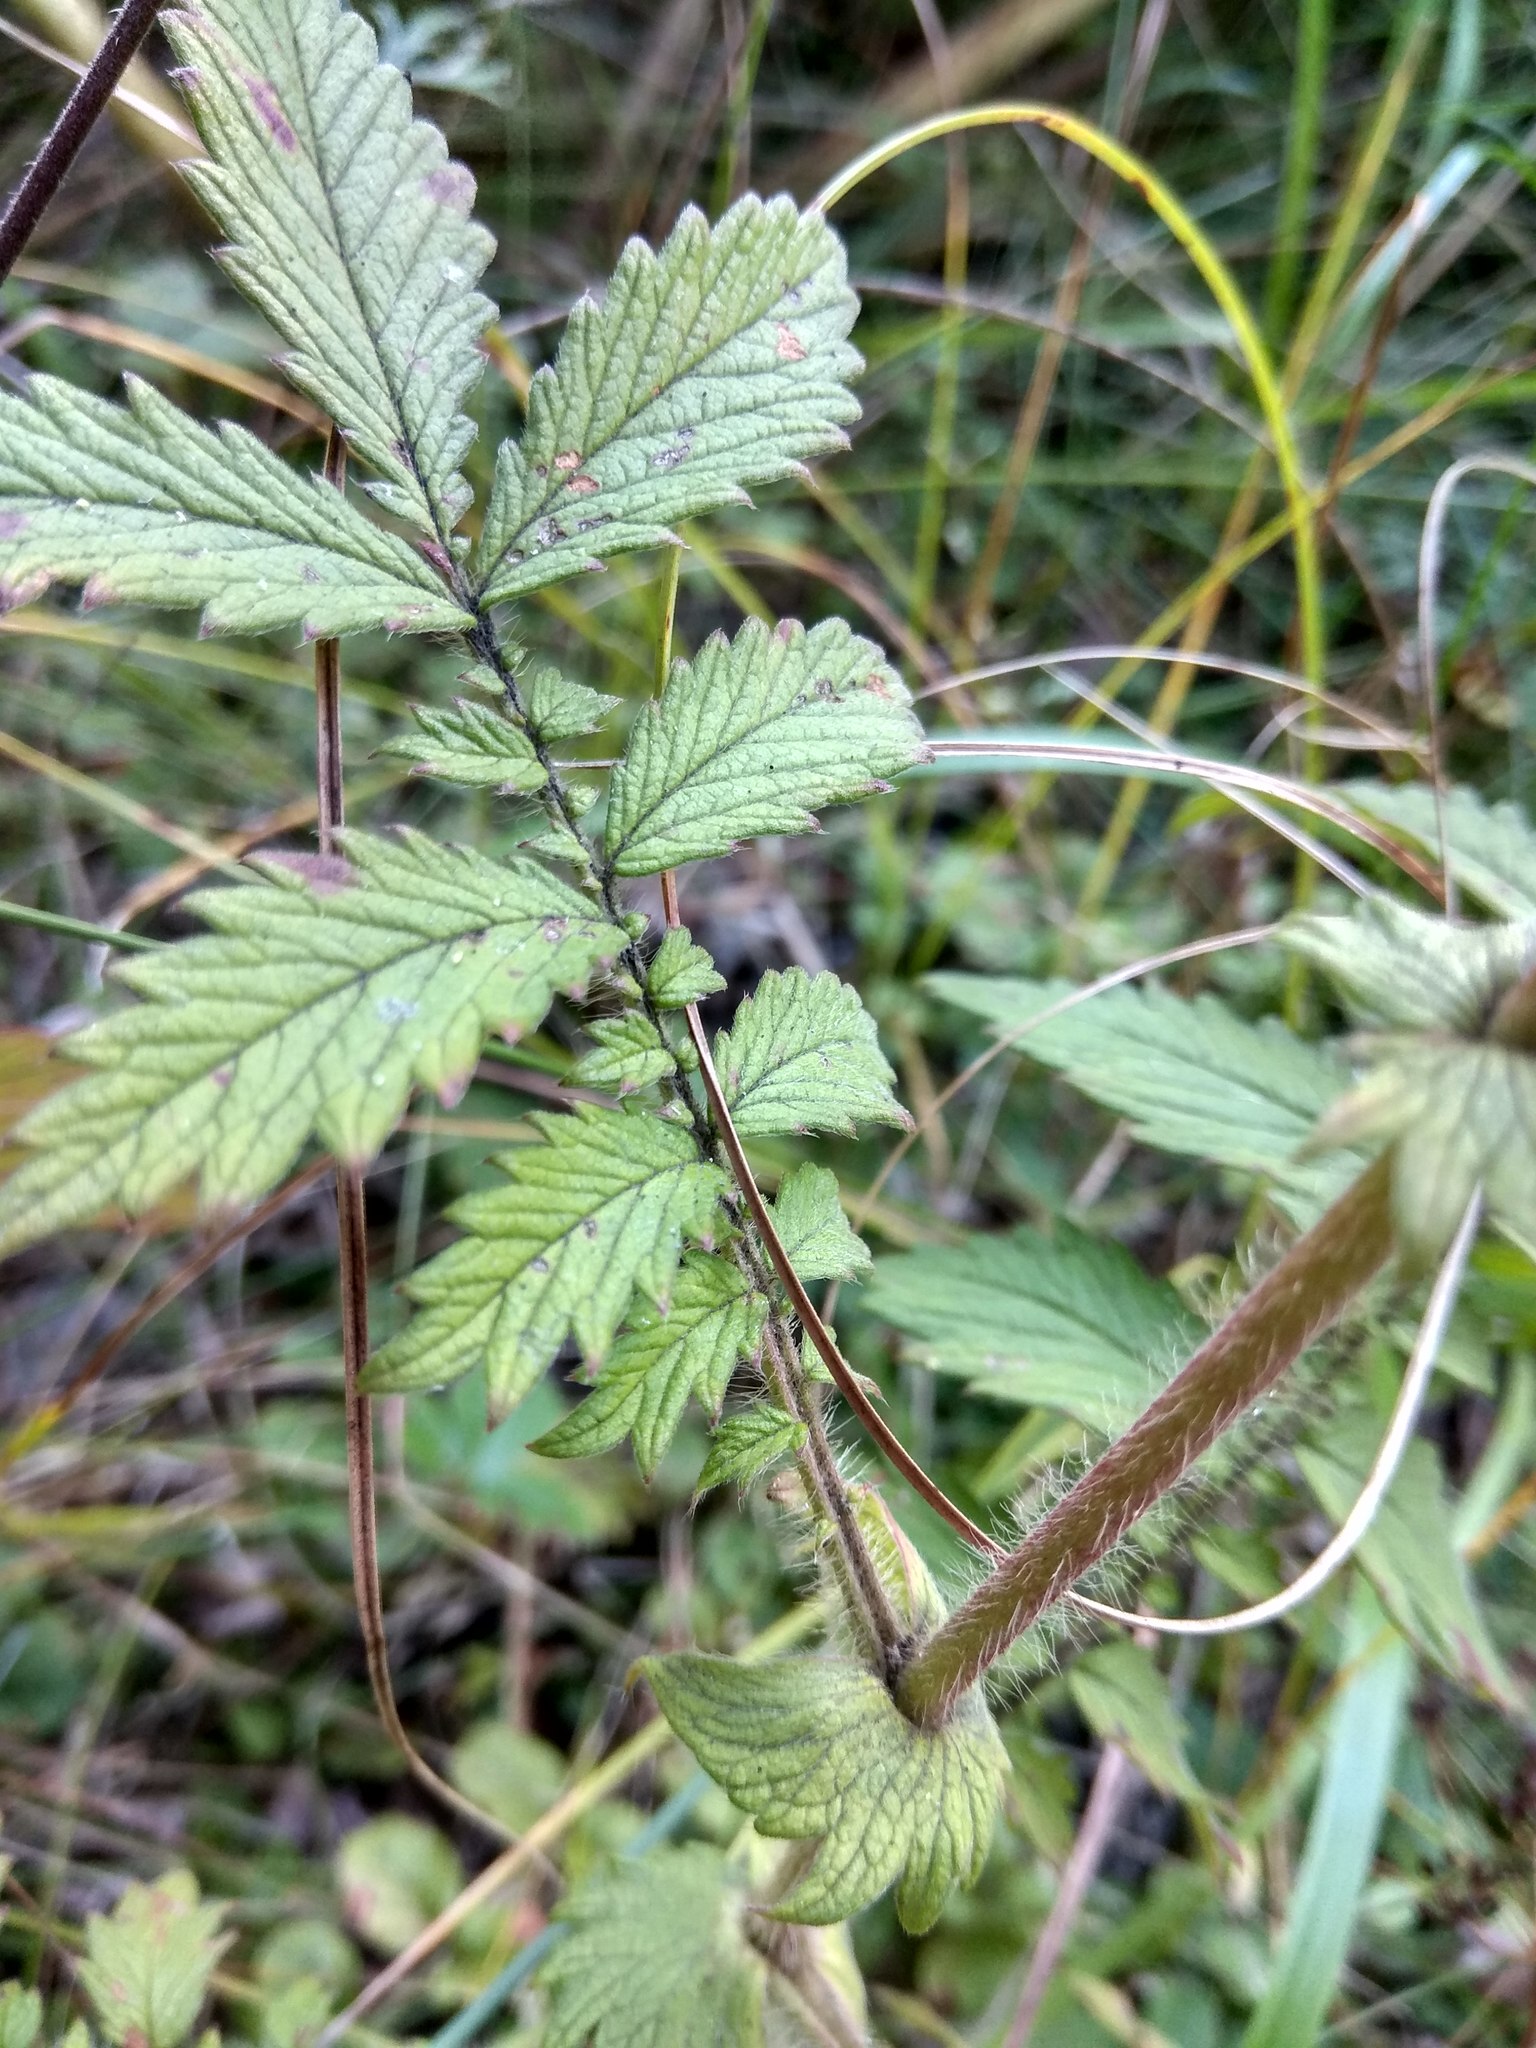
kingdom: Plantae
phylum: Tracheophyta
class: Magnoliopsida
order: Rosales
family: Rosaceae
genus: Agrimonia
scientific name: Agrimonia eupatoria
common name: Agrimony
